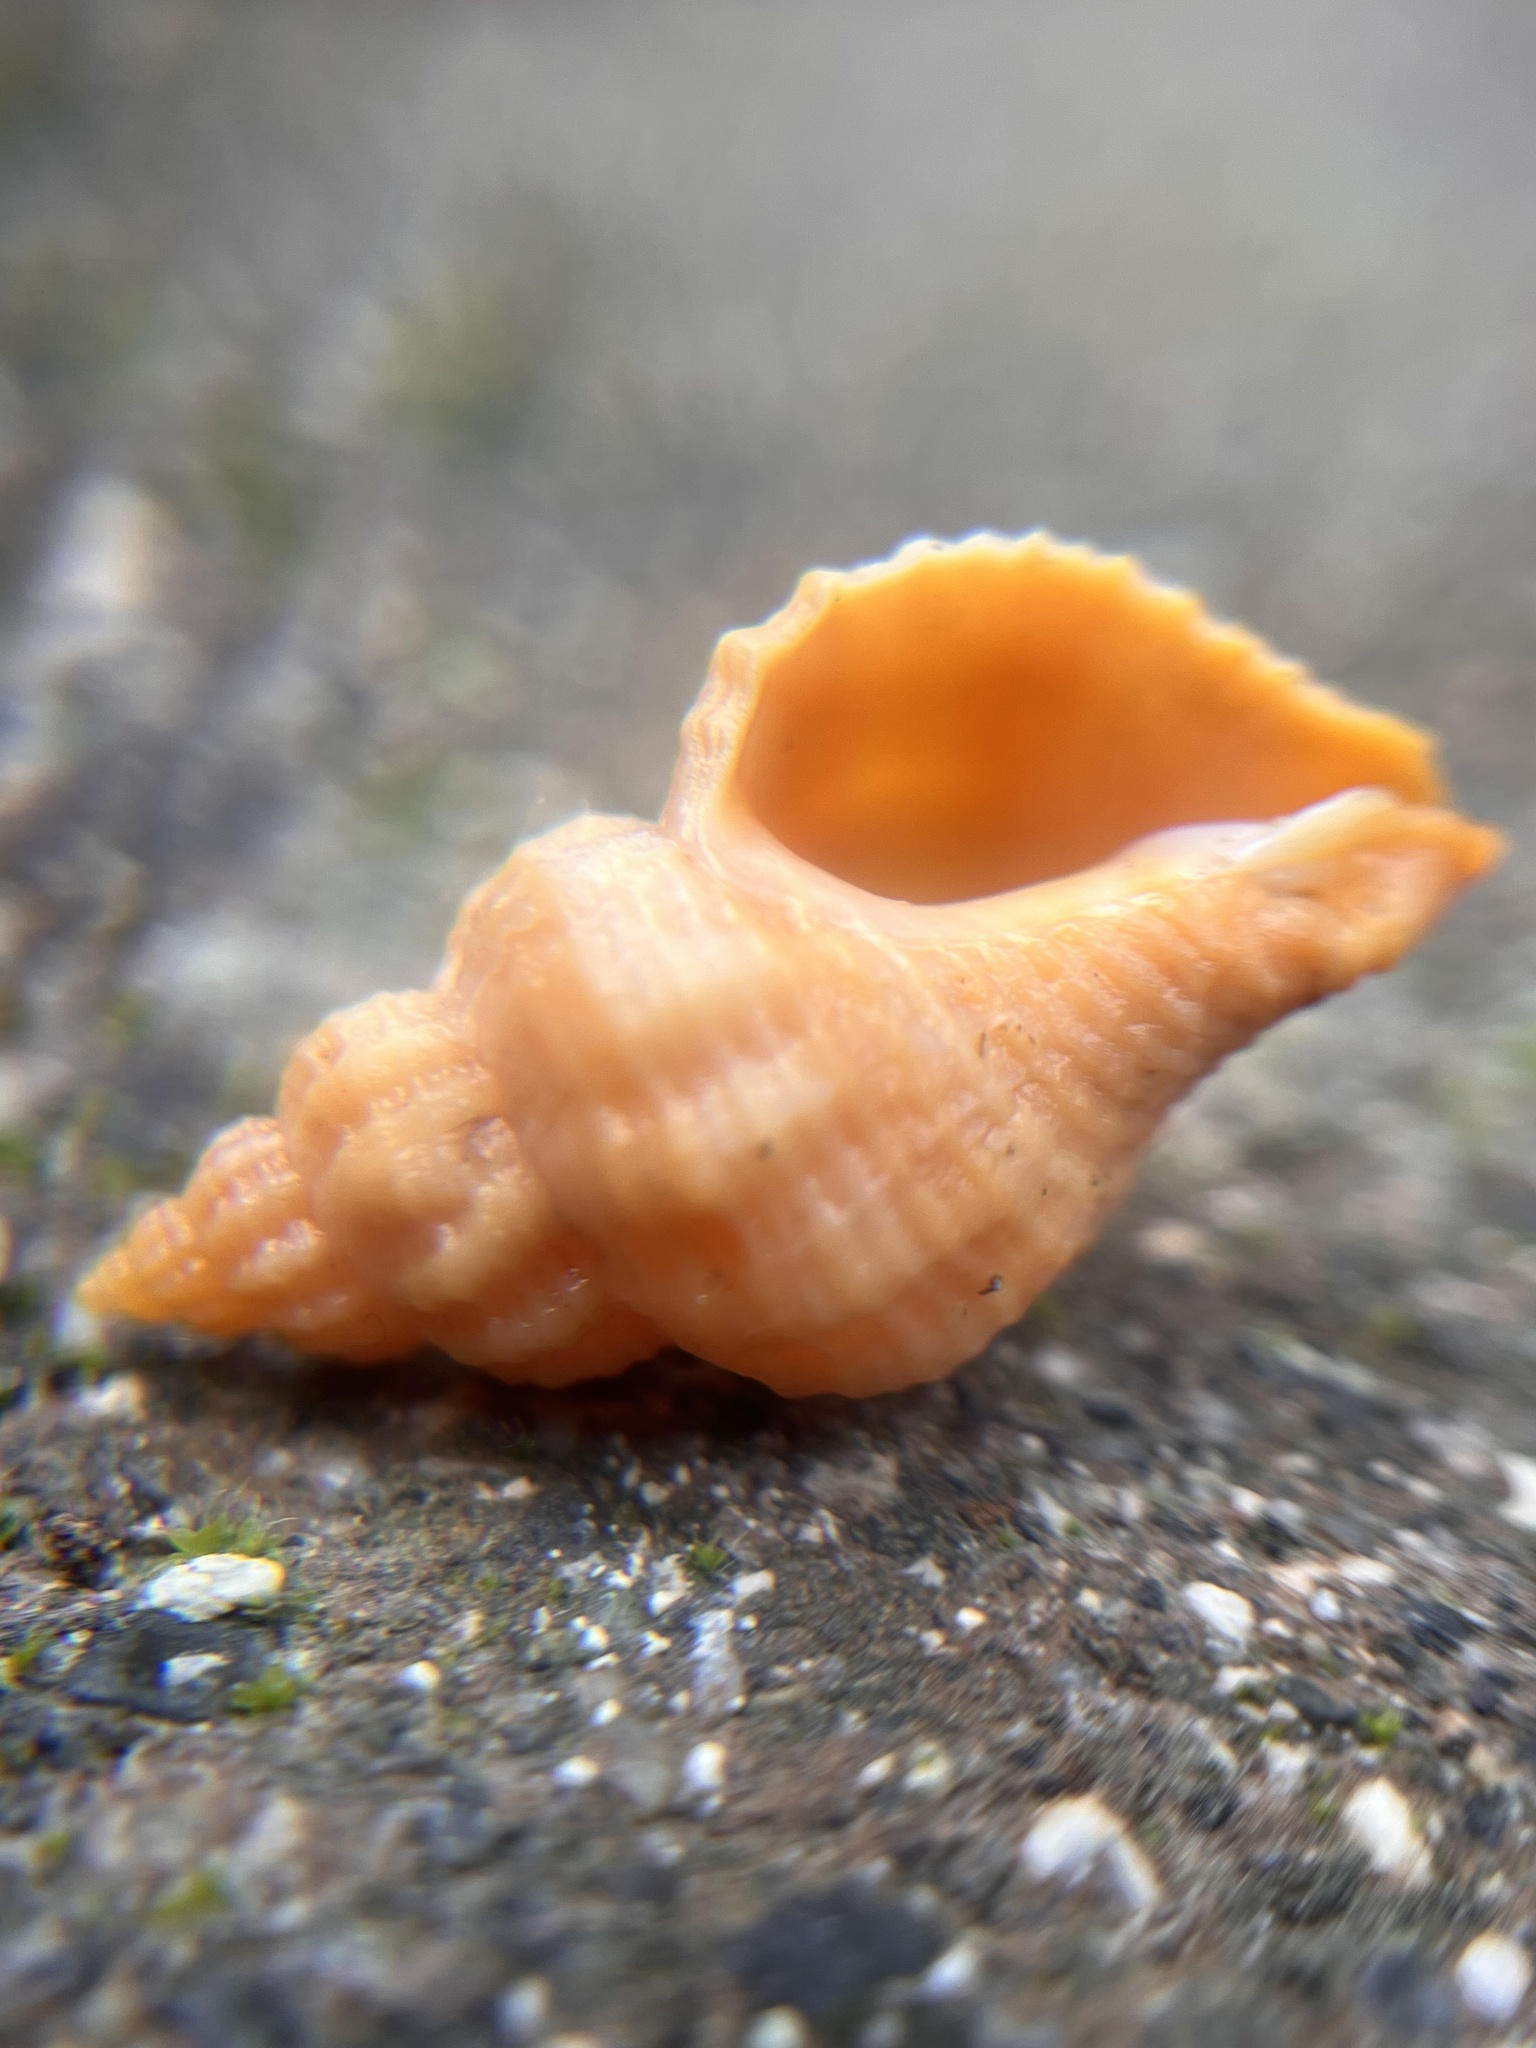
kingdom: Animalia
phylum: Mollusca
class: Gastropoda
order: Neogastropoda
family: Muricidae
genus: Urosalpinx
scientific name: Urosalpinx cinerea
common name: American sting winkle
